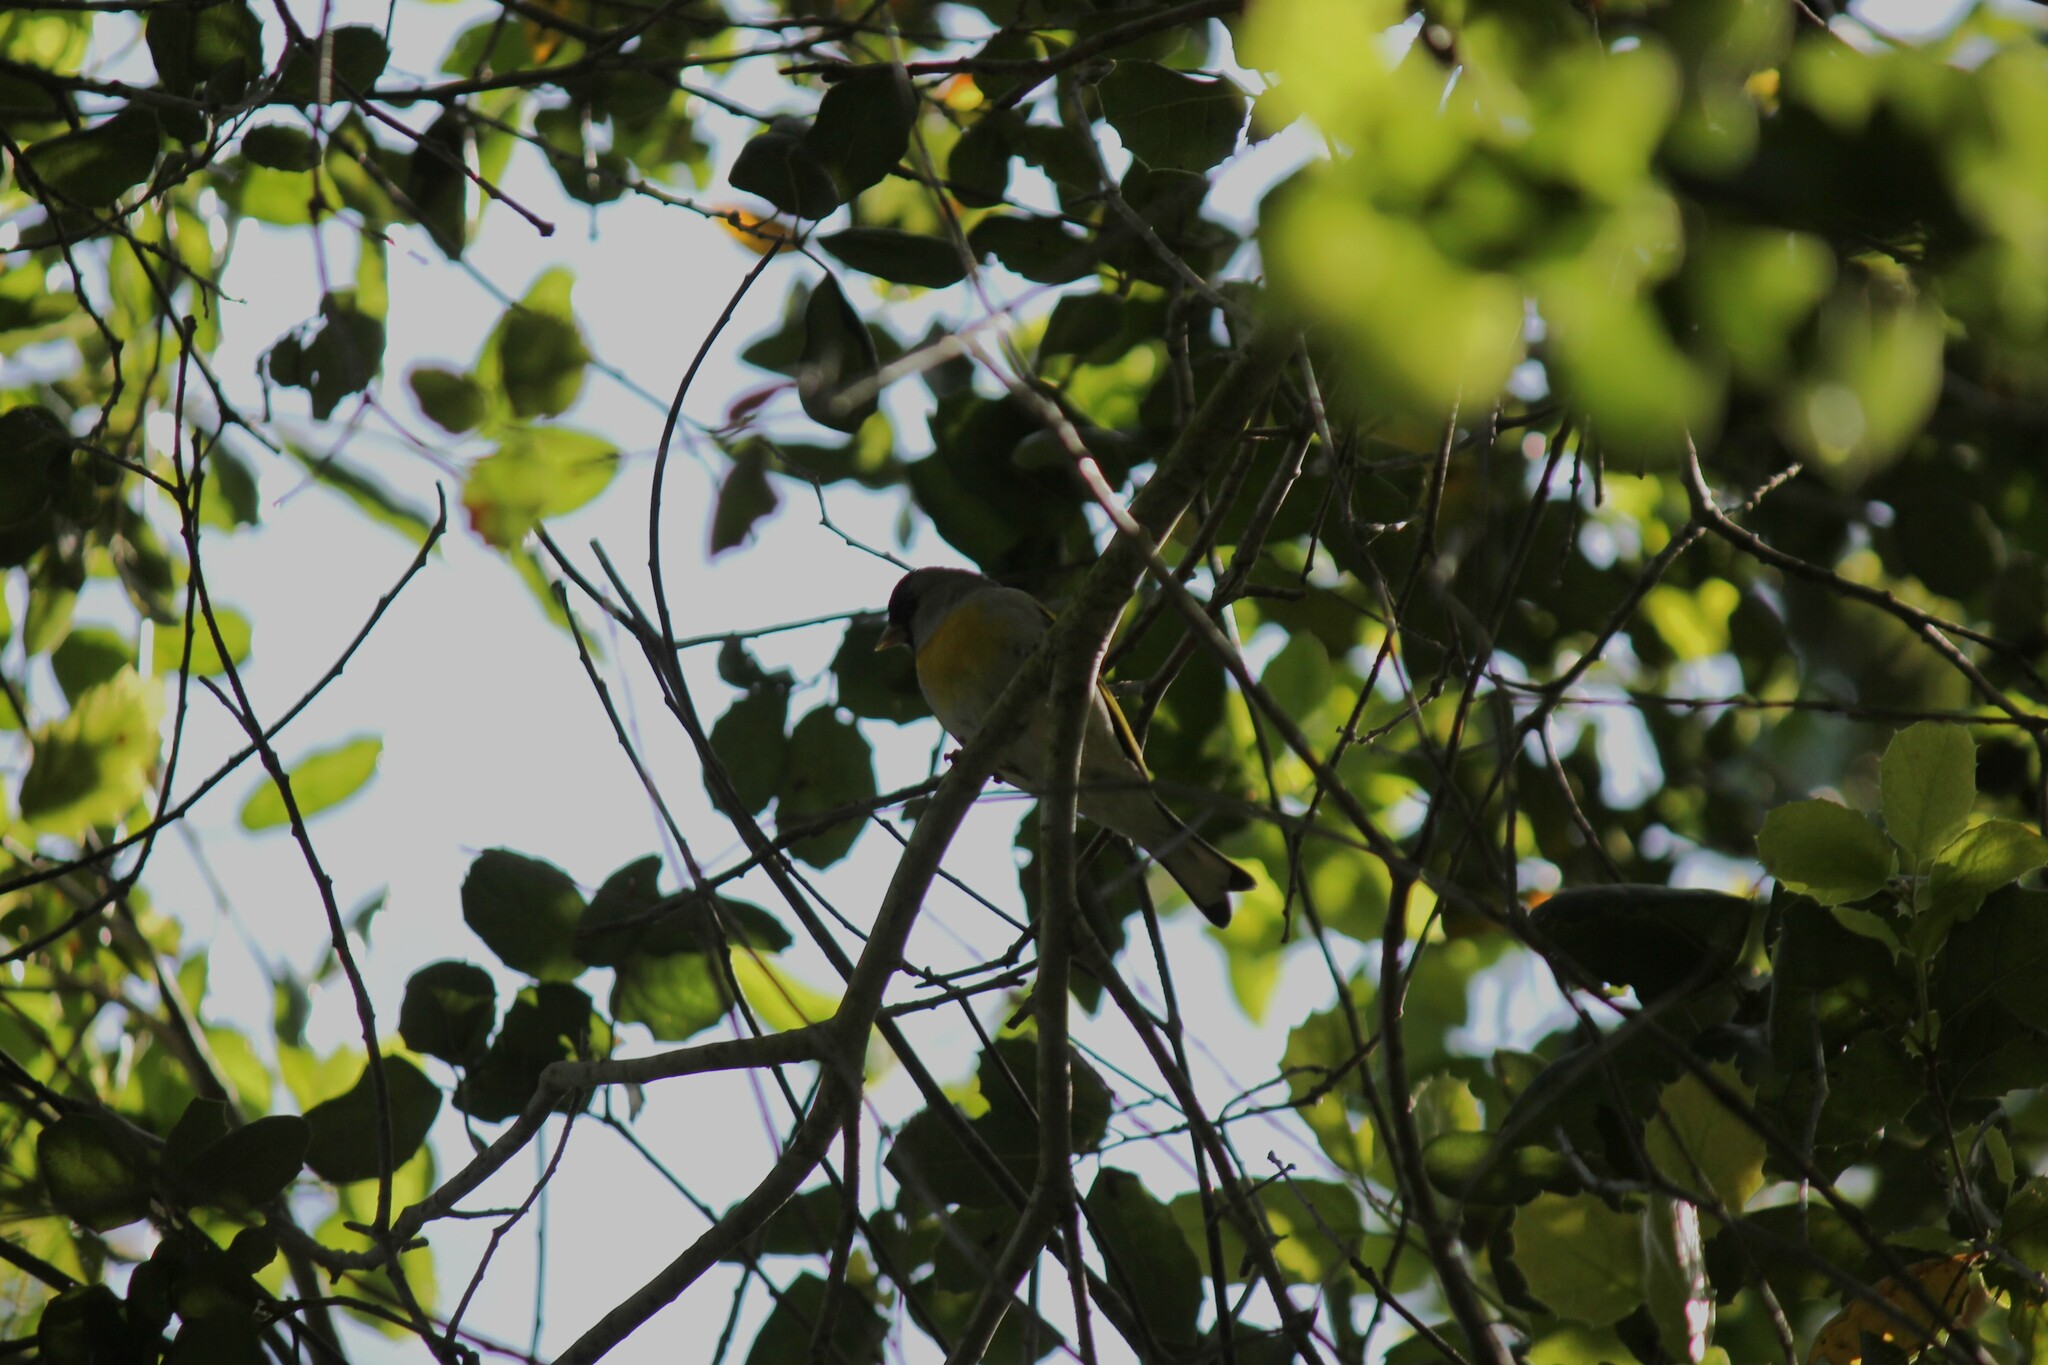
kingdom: Animalia
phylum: Chordata
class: Aves
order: Passeriformes
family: Fringillidae
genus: Spinus
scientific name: Spinus lawrencei
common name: Lawrence's goldfinch
